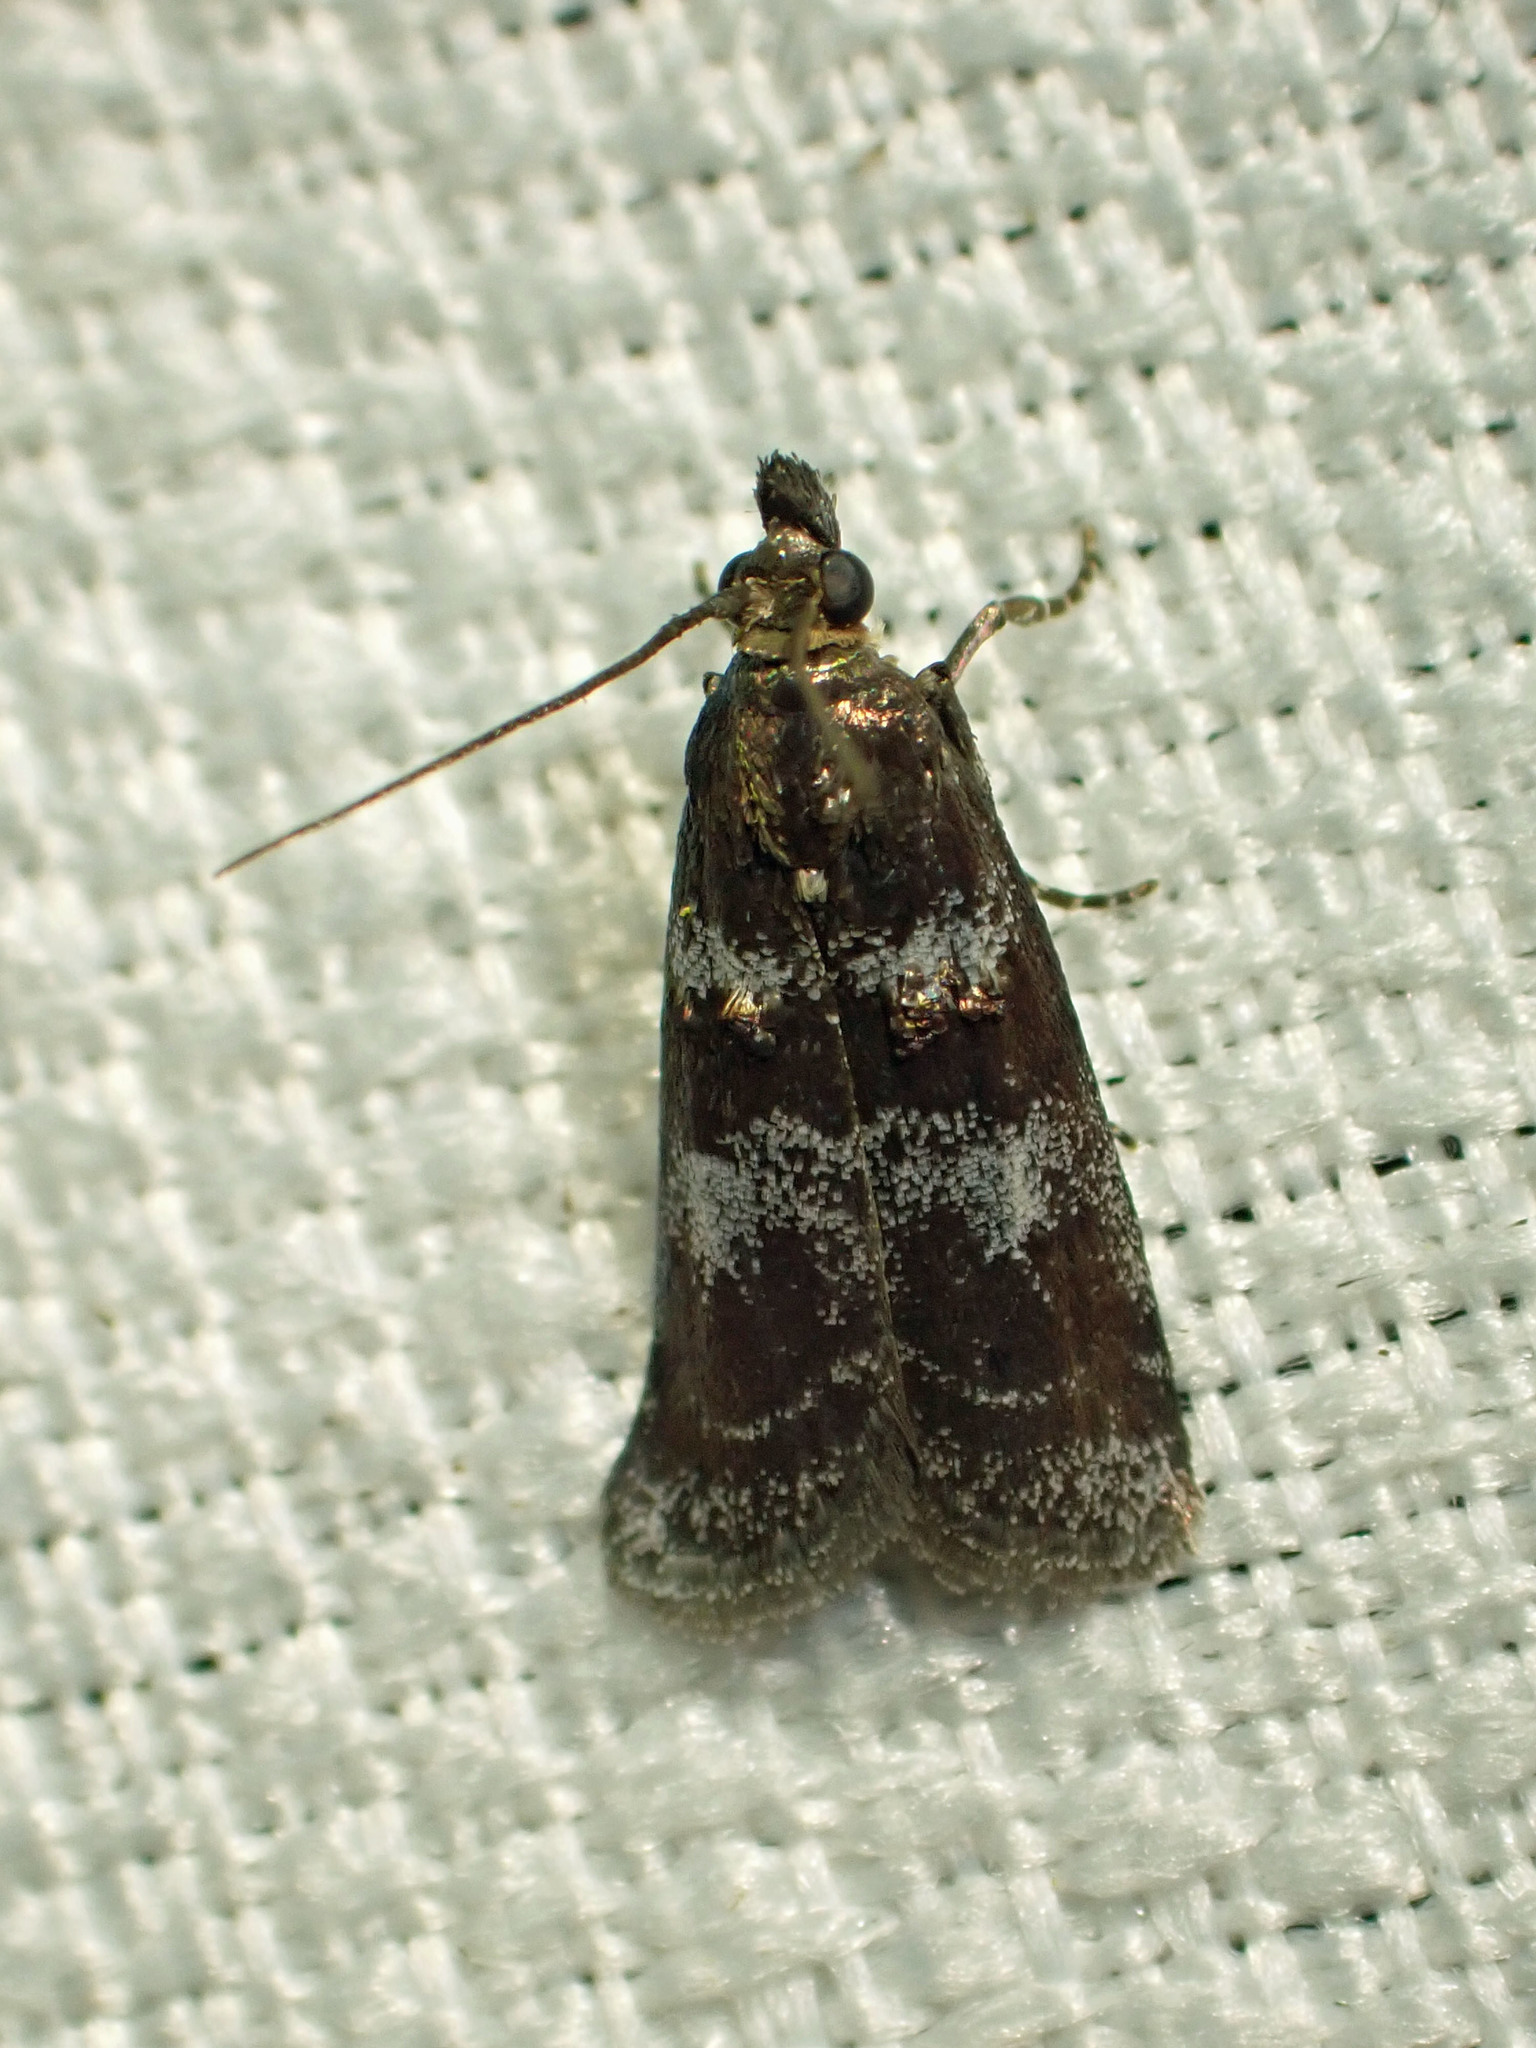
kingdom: Animalia
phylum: Arthropoda
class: Insecta
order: Lepidoptera
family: Pyralidae
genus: Ortholepis
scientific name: Ortholepis myricella
